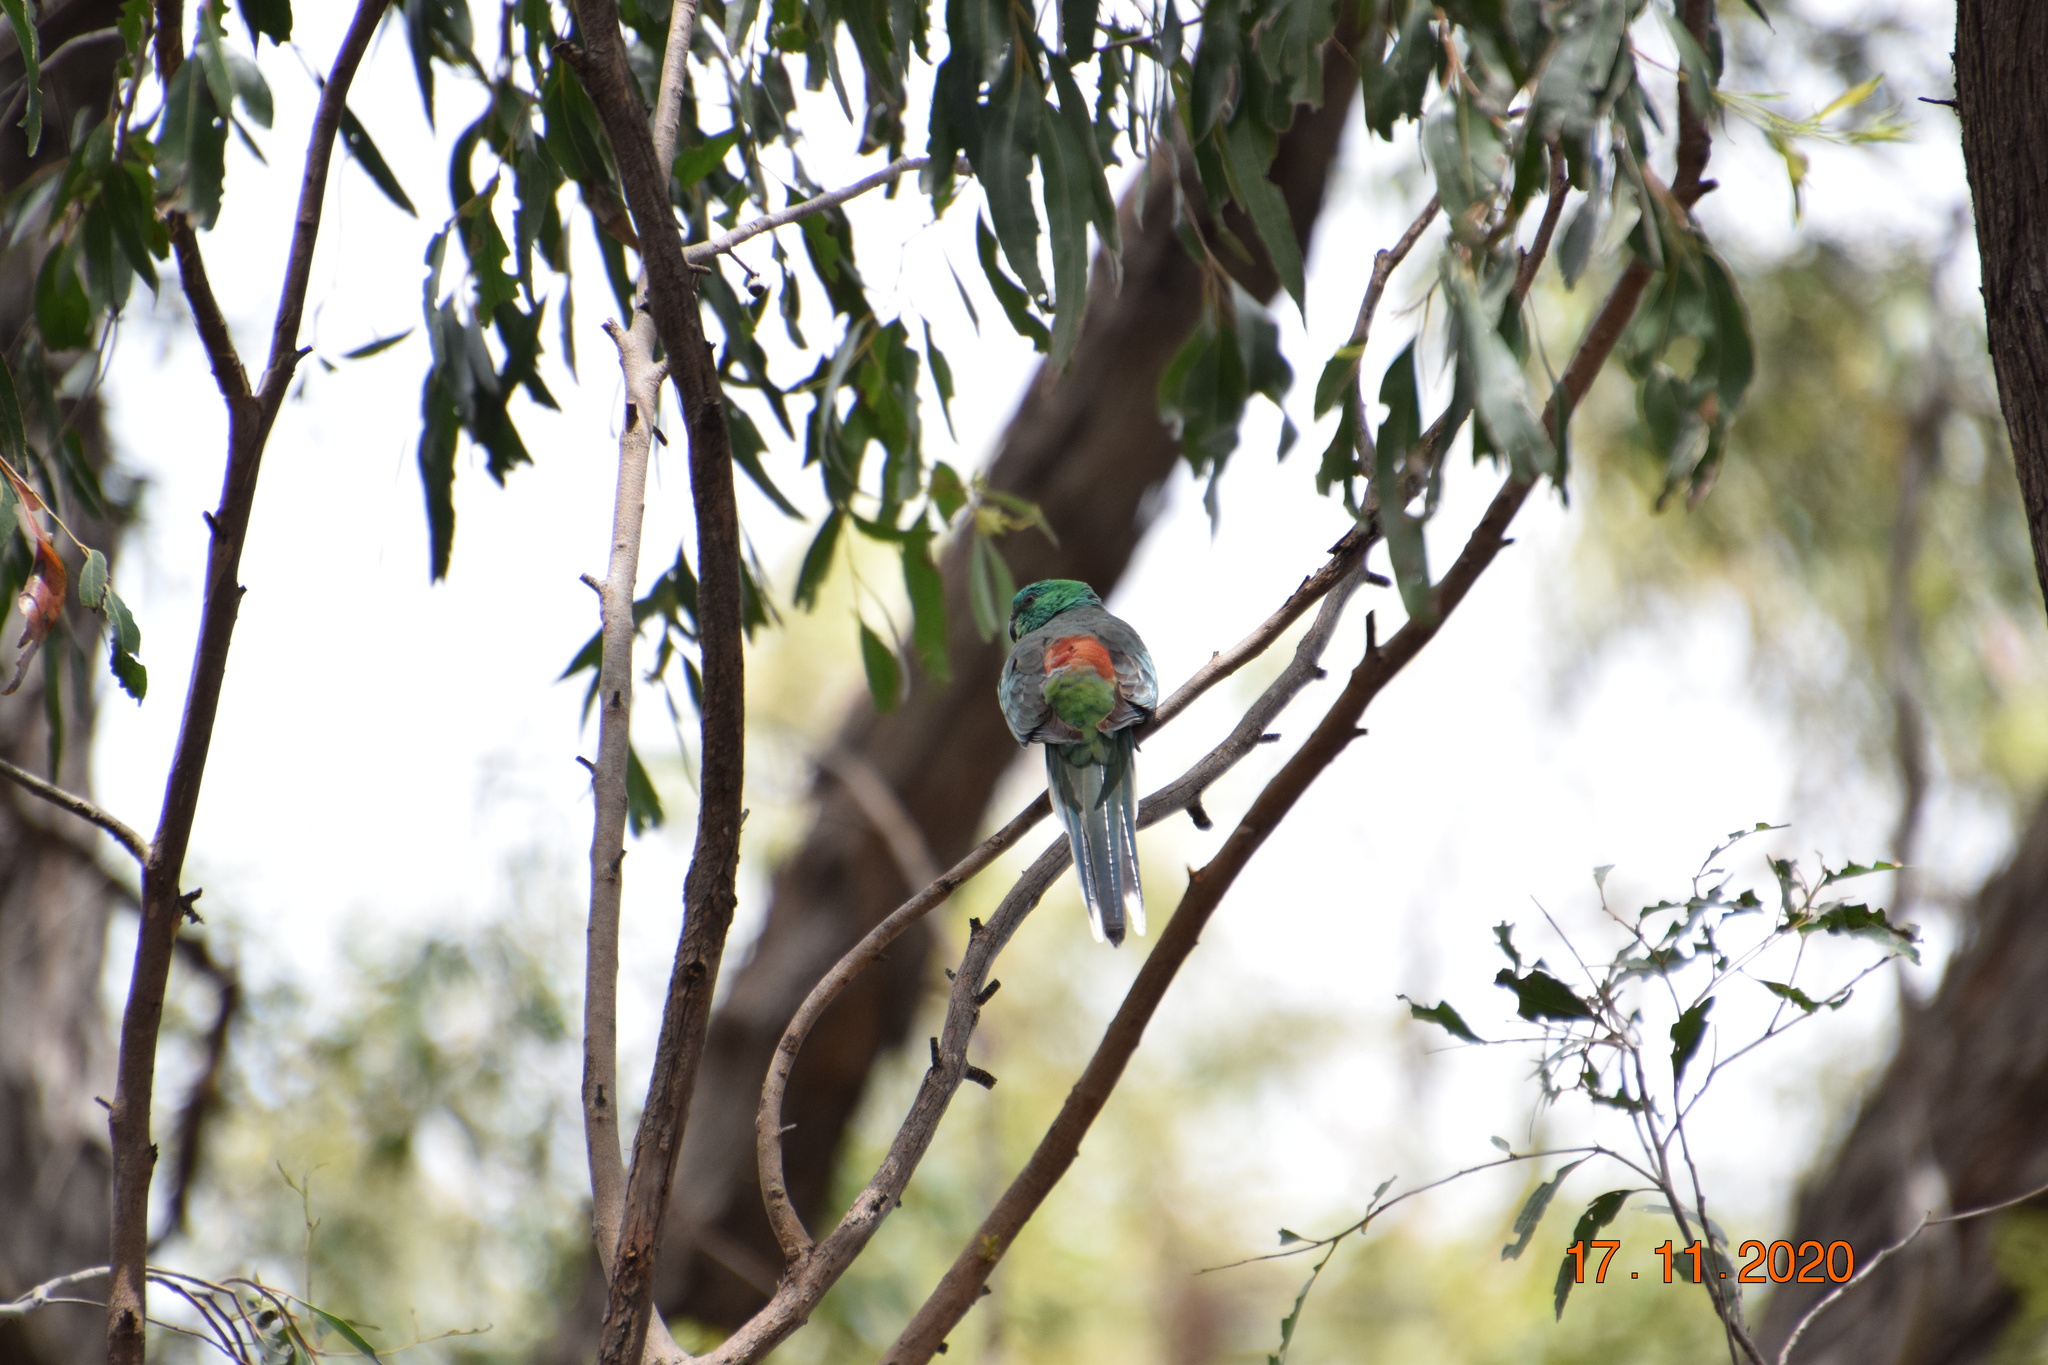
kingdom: Animalia
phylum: Chordata
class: Aves
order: Psittaciformes
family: Psittacidae
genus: Psephotus
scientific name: Psephotus haematonotus
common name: Red-rumped parrot
